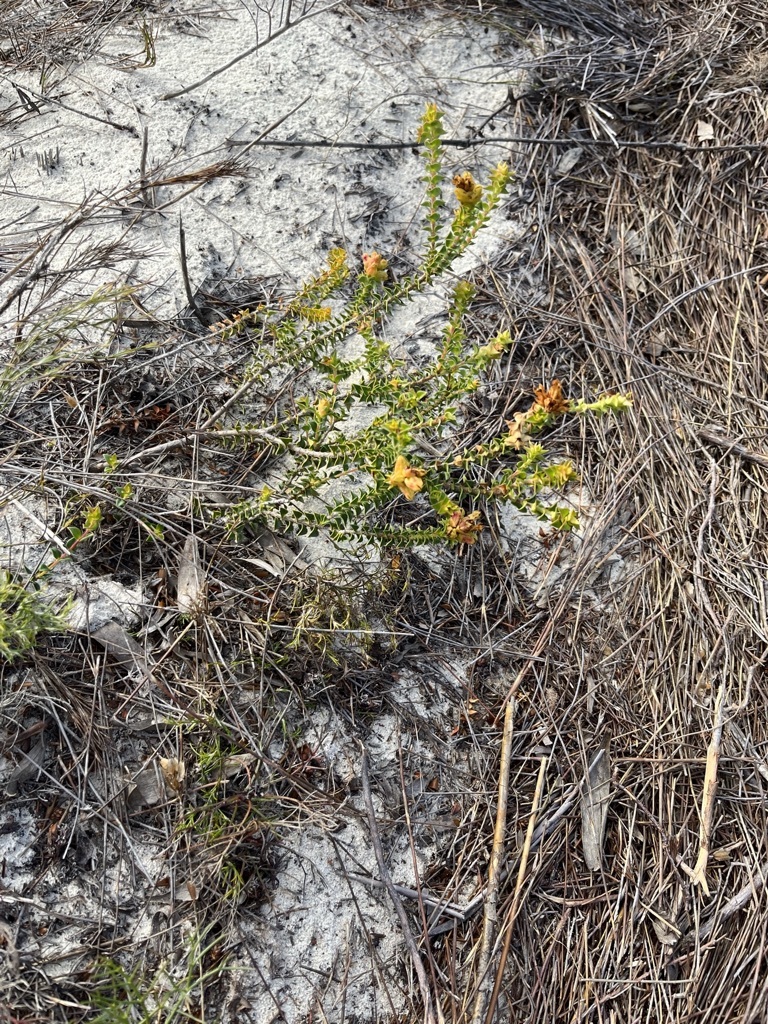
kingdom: Plantae
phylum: Tracheophyta
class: Magnoliopsida
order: Myrtales
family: Penaeaceae
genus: Penaea
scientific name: Penaea mucronata
